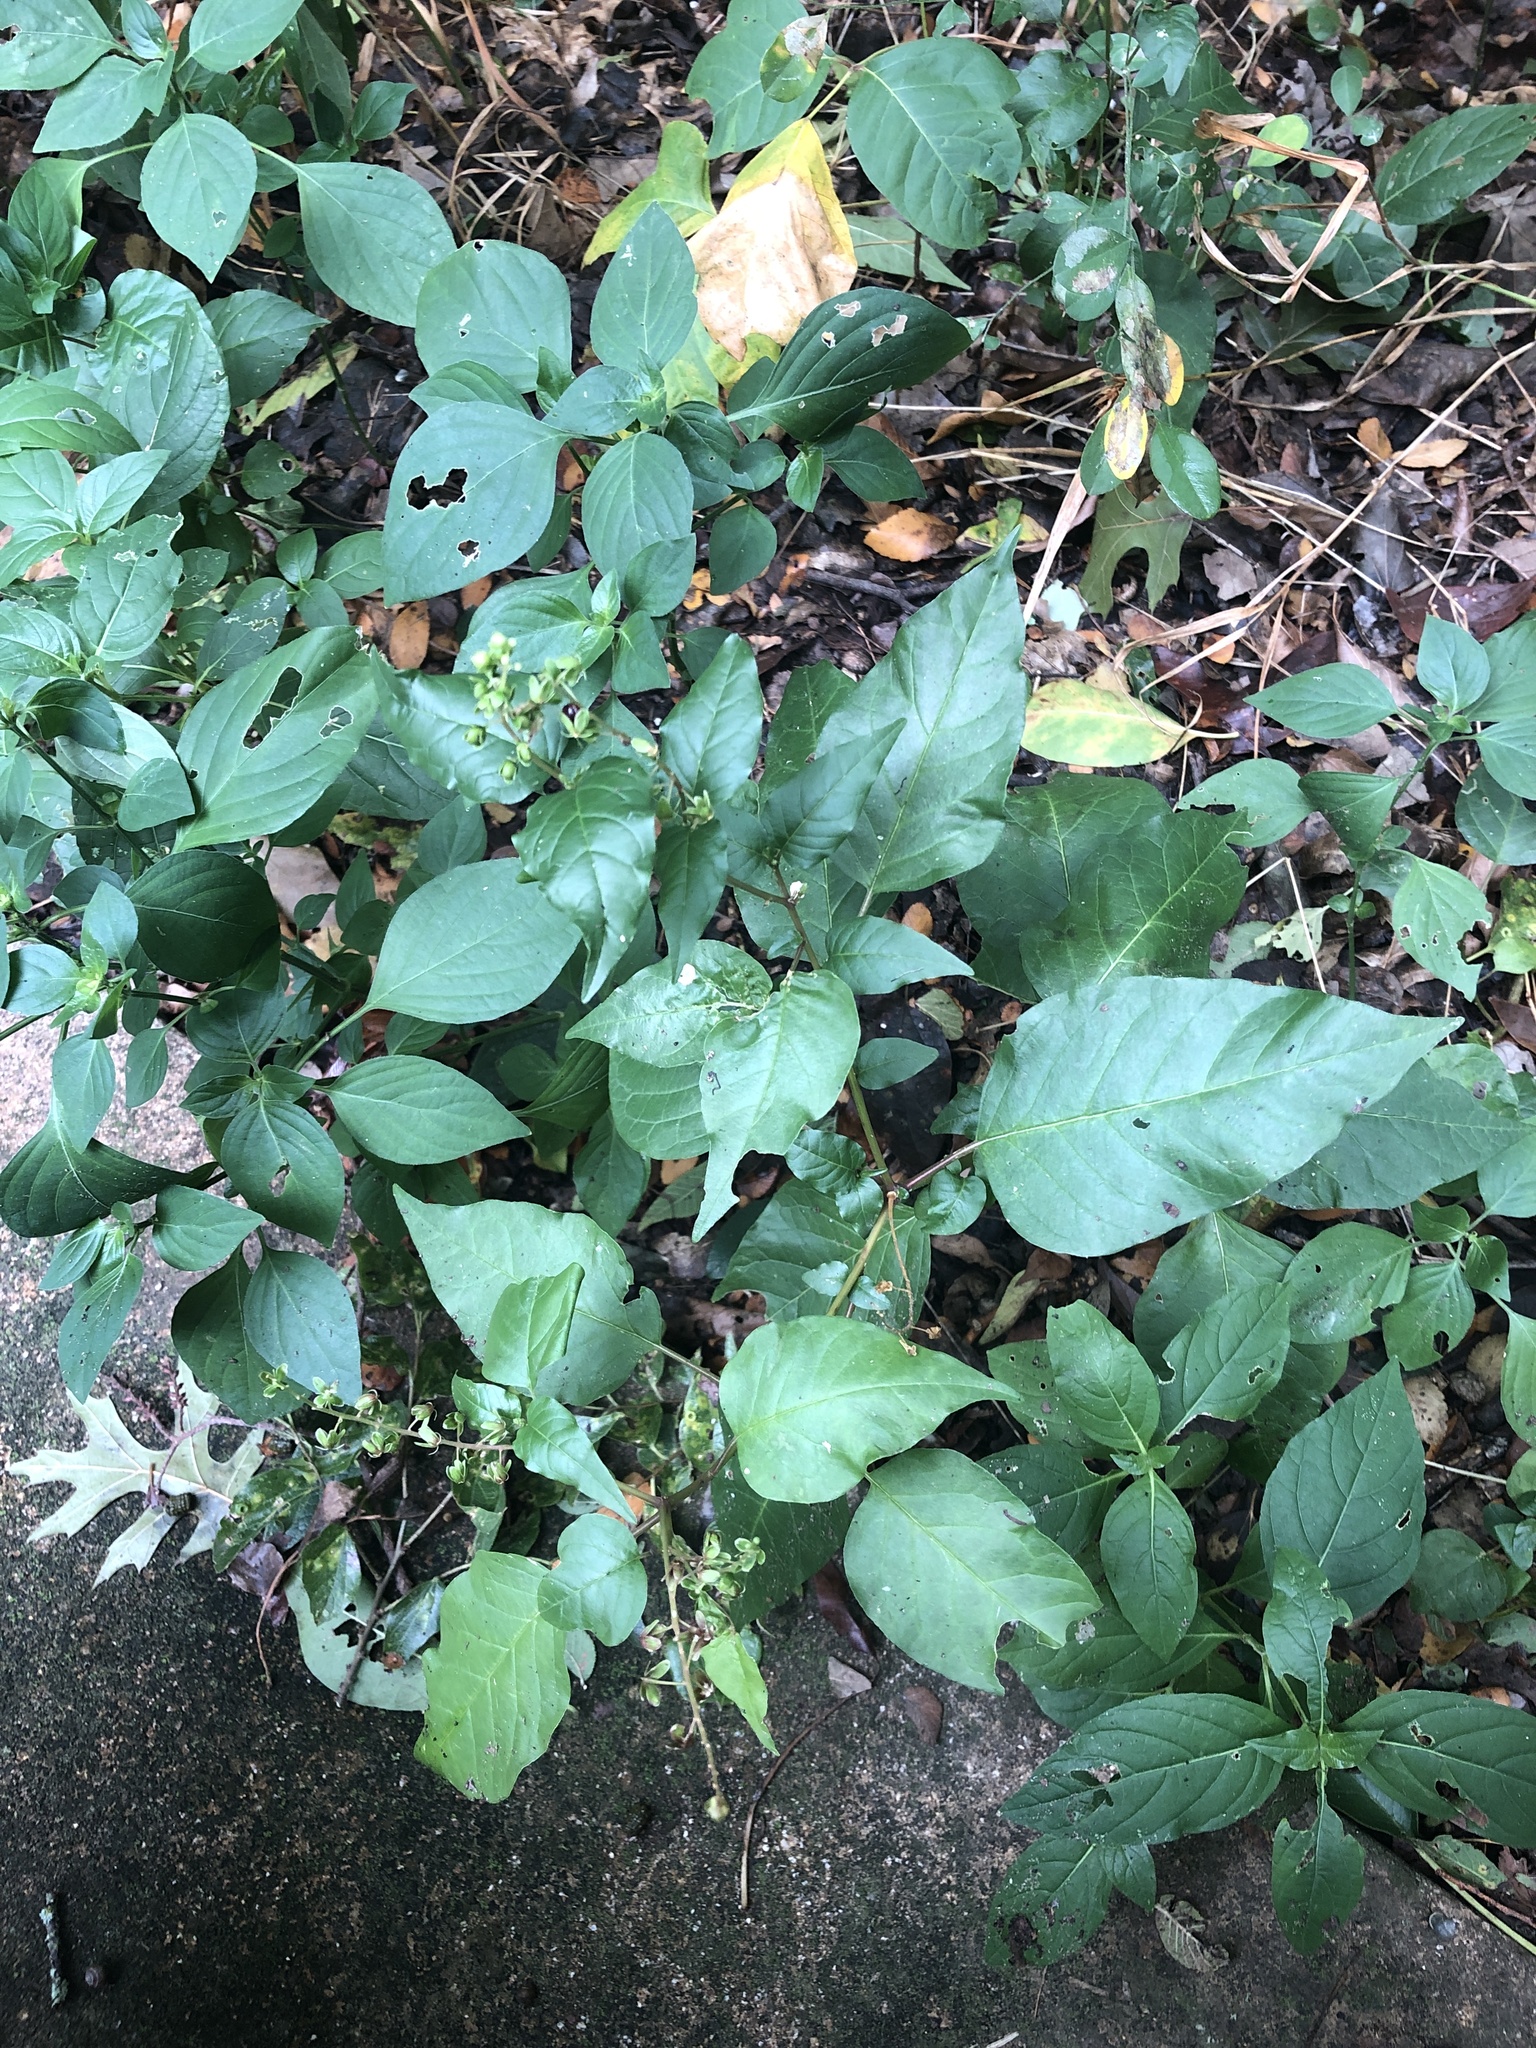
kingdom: Plantae
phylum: Tracheophyta
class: Magnoliopsida
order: Caryophyllales
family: Phytolaccaceae
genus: Rivina
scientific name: Rivina humilis
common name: Rougeplant
